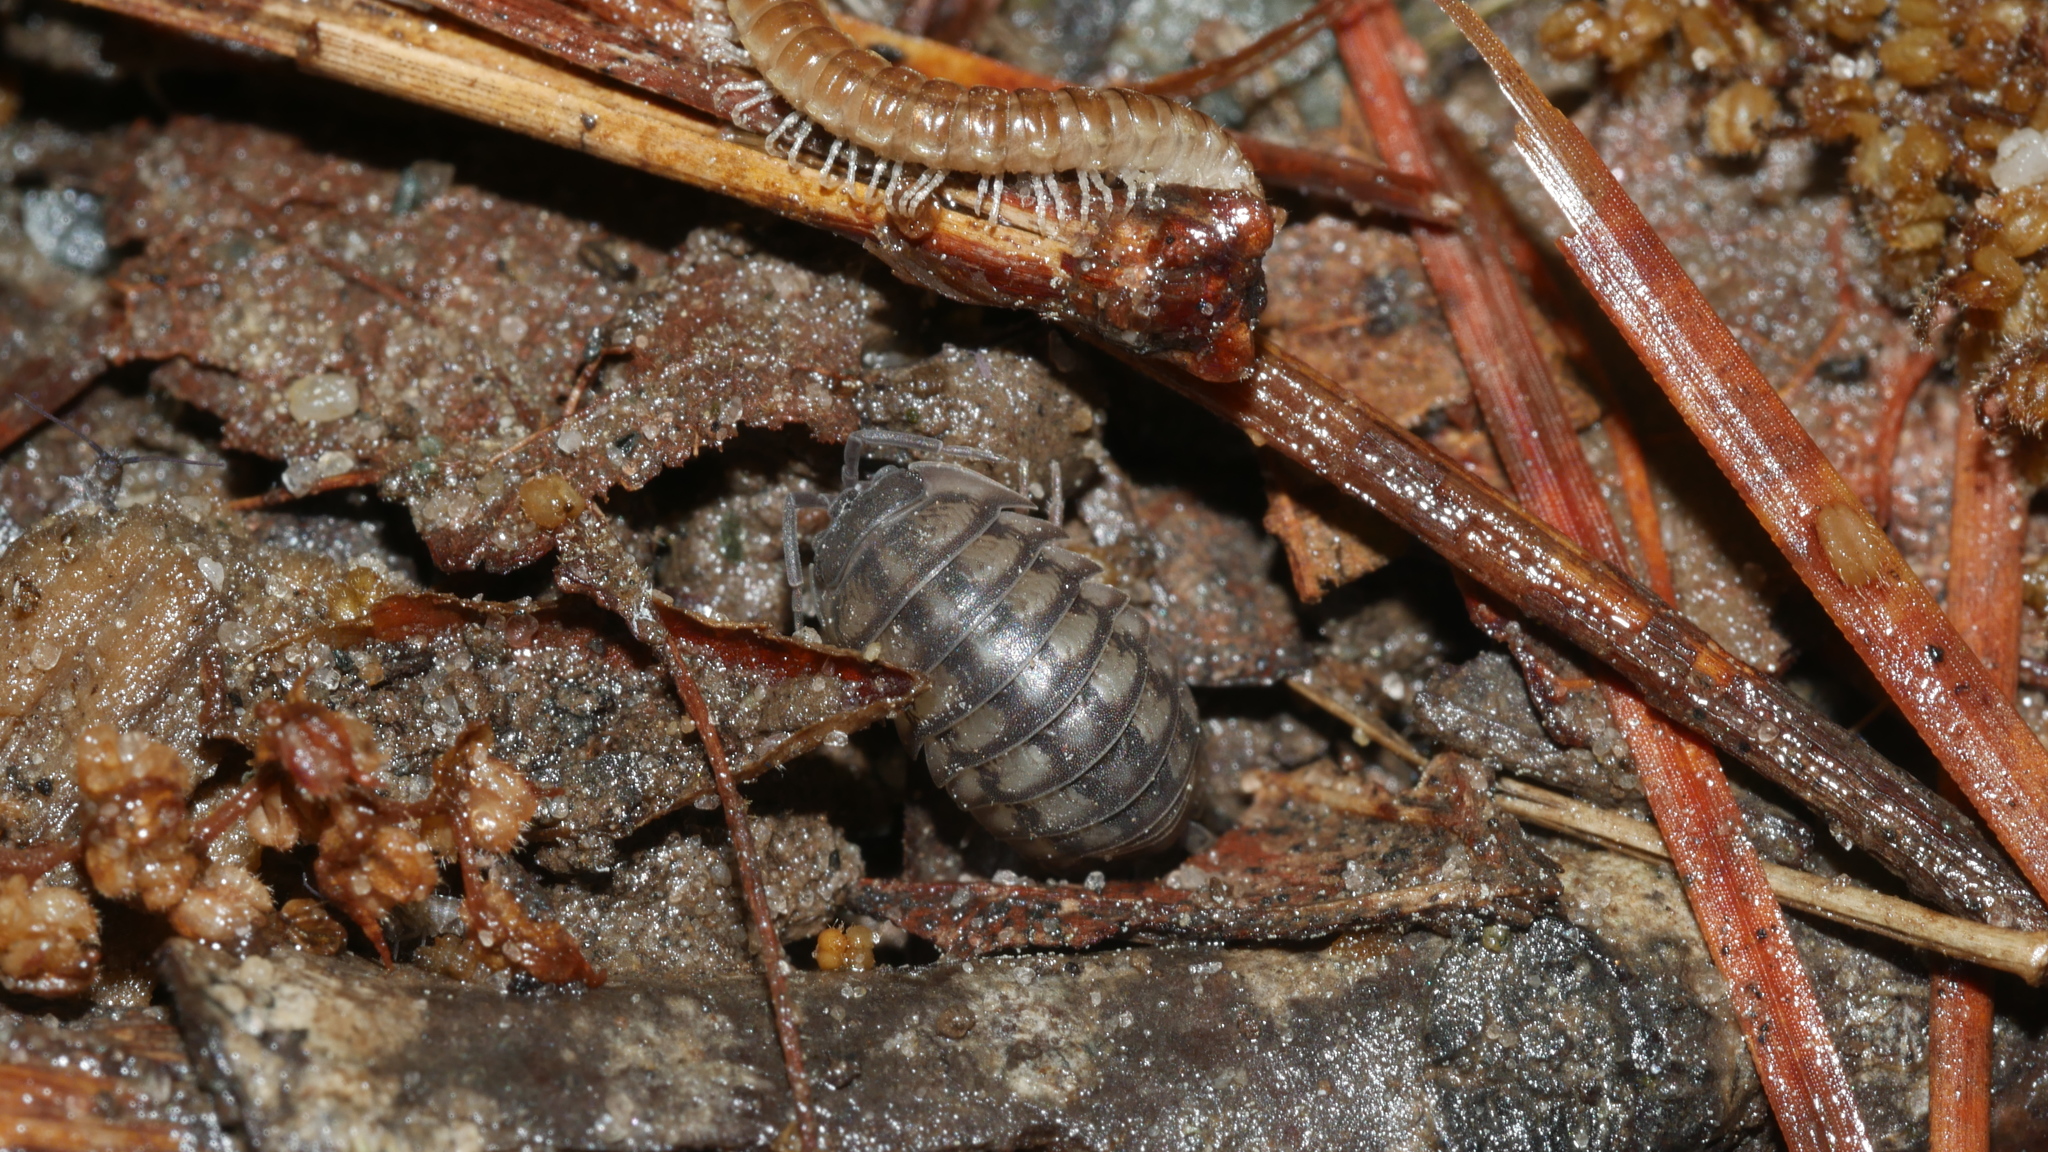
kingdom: Animalia
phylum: Arthropoda
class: Malacostraca
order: Isopoda
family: Armadillidiidae
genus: Armadillidium
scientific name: Armadillidium nasatum
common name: Isopod
